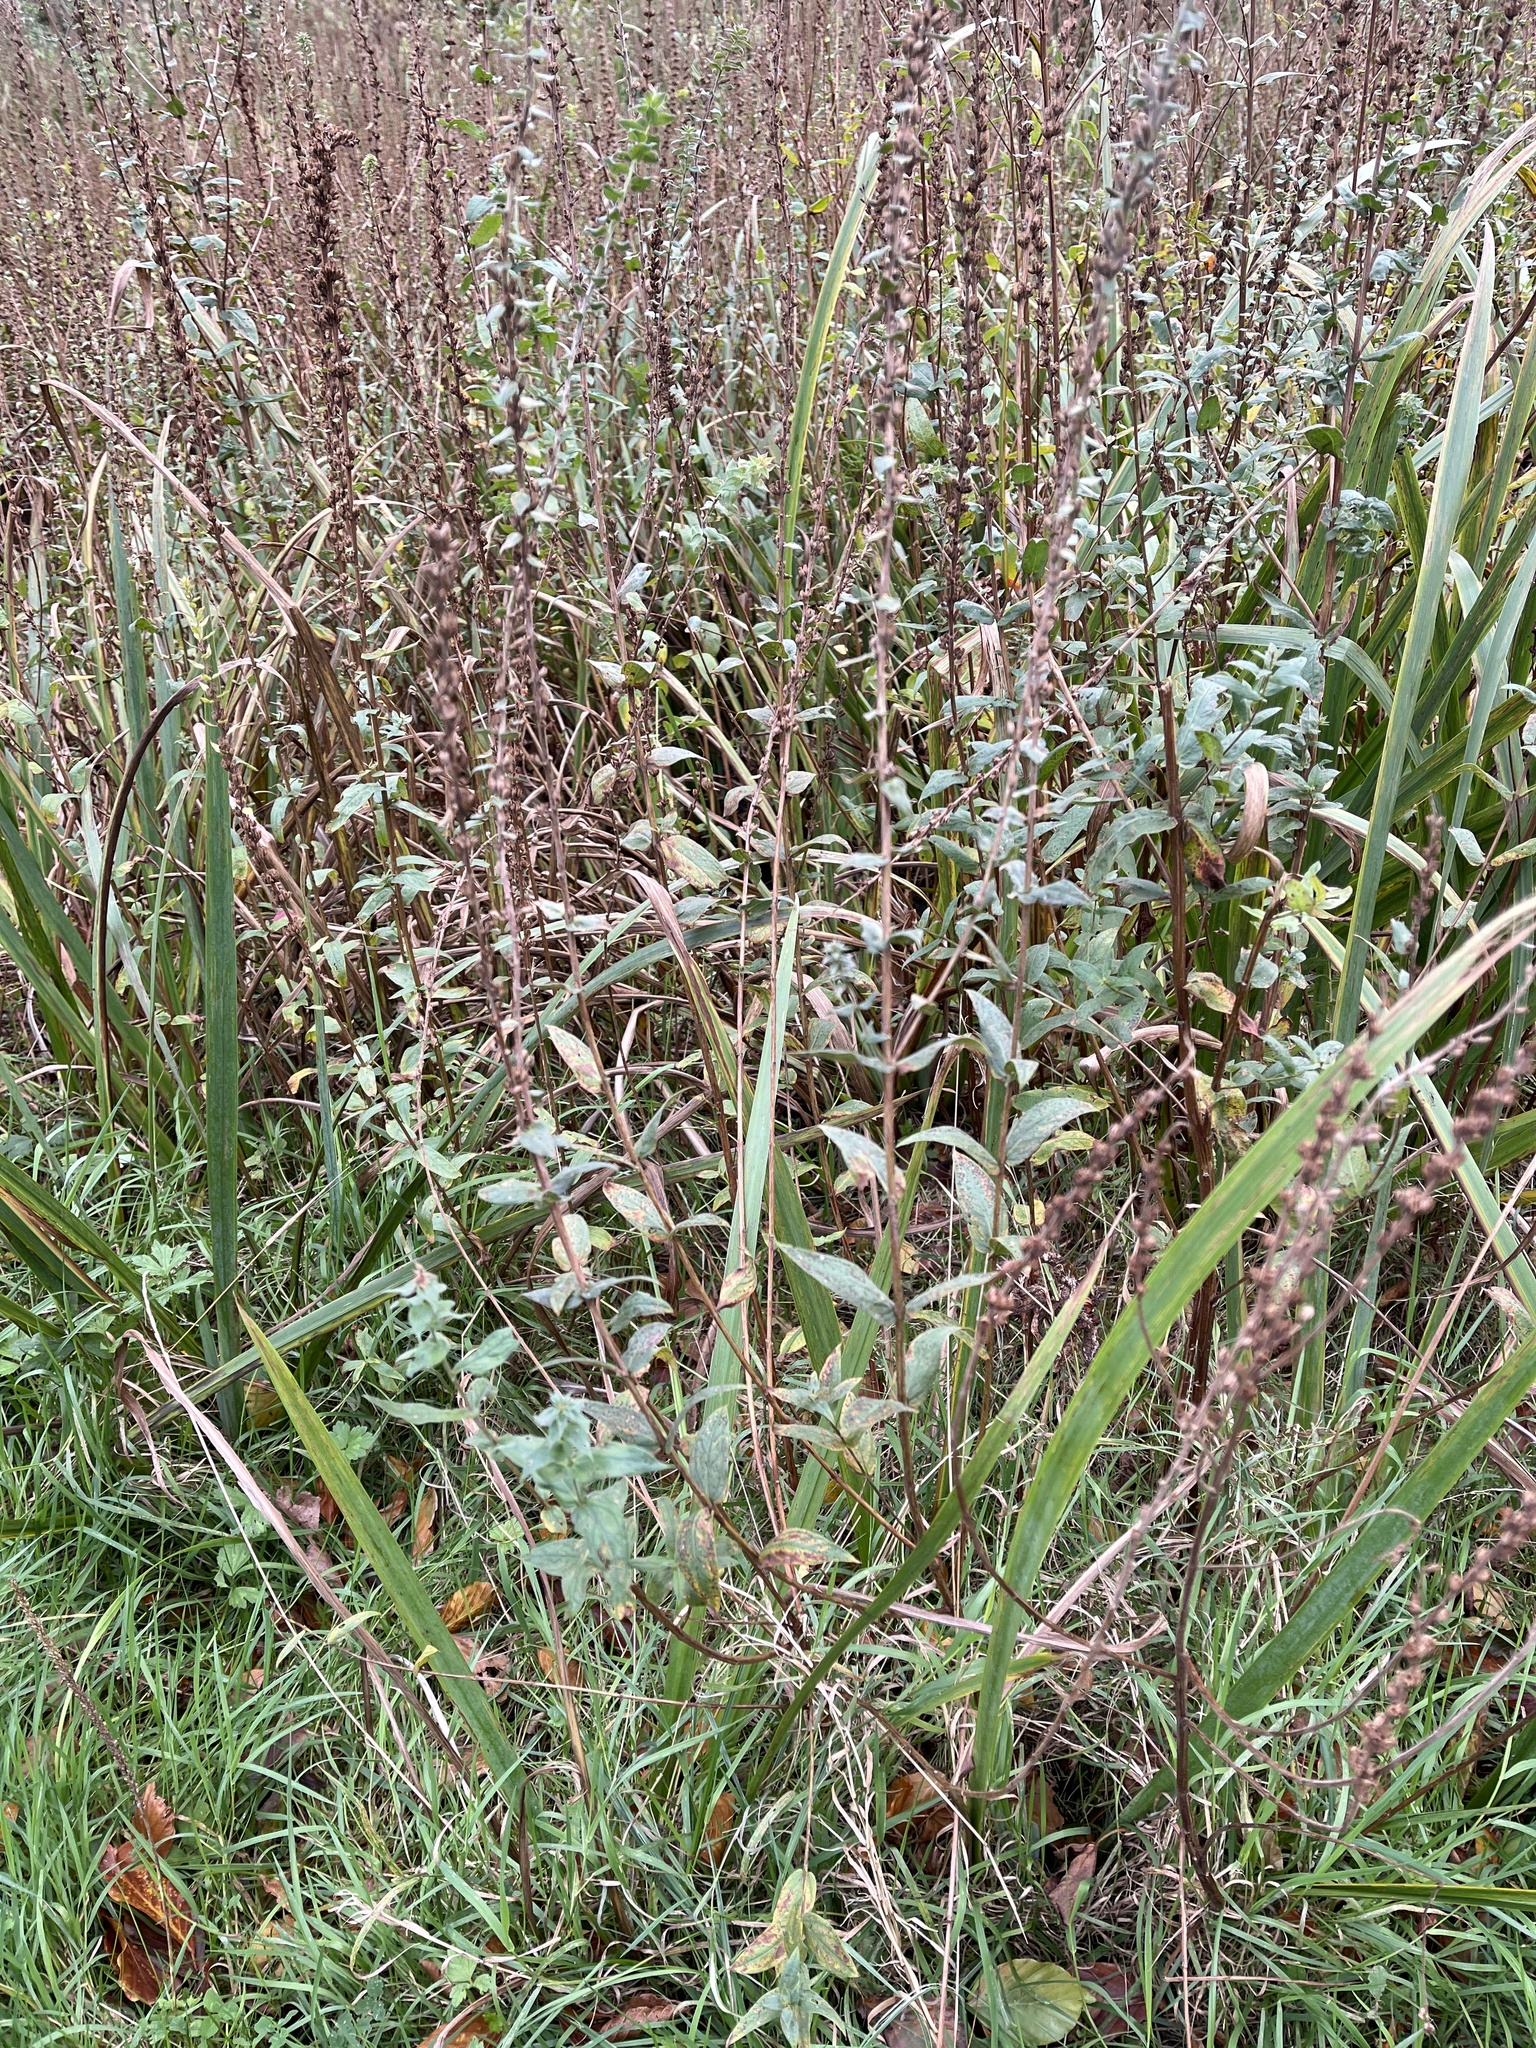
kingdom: Plantae
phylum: Tracheophyta
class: Magnoliopsida
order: Myrtales
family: Lythraceae
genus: Lythrum
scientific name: Lythrum salicaria
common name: Purple loosestrife
